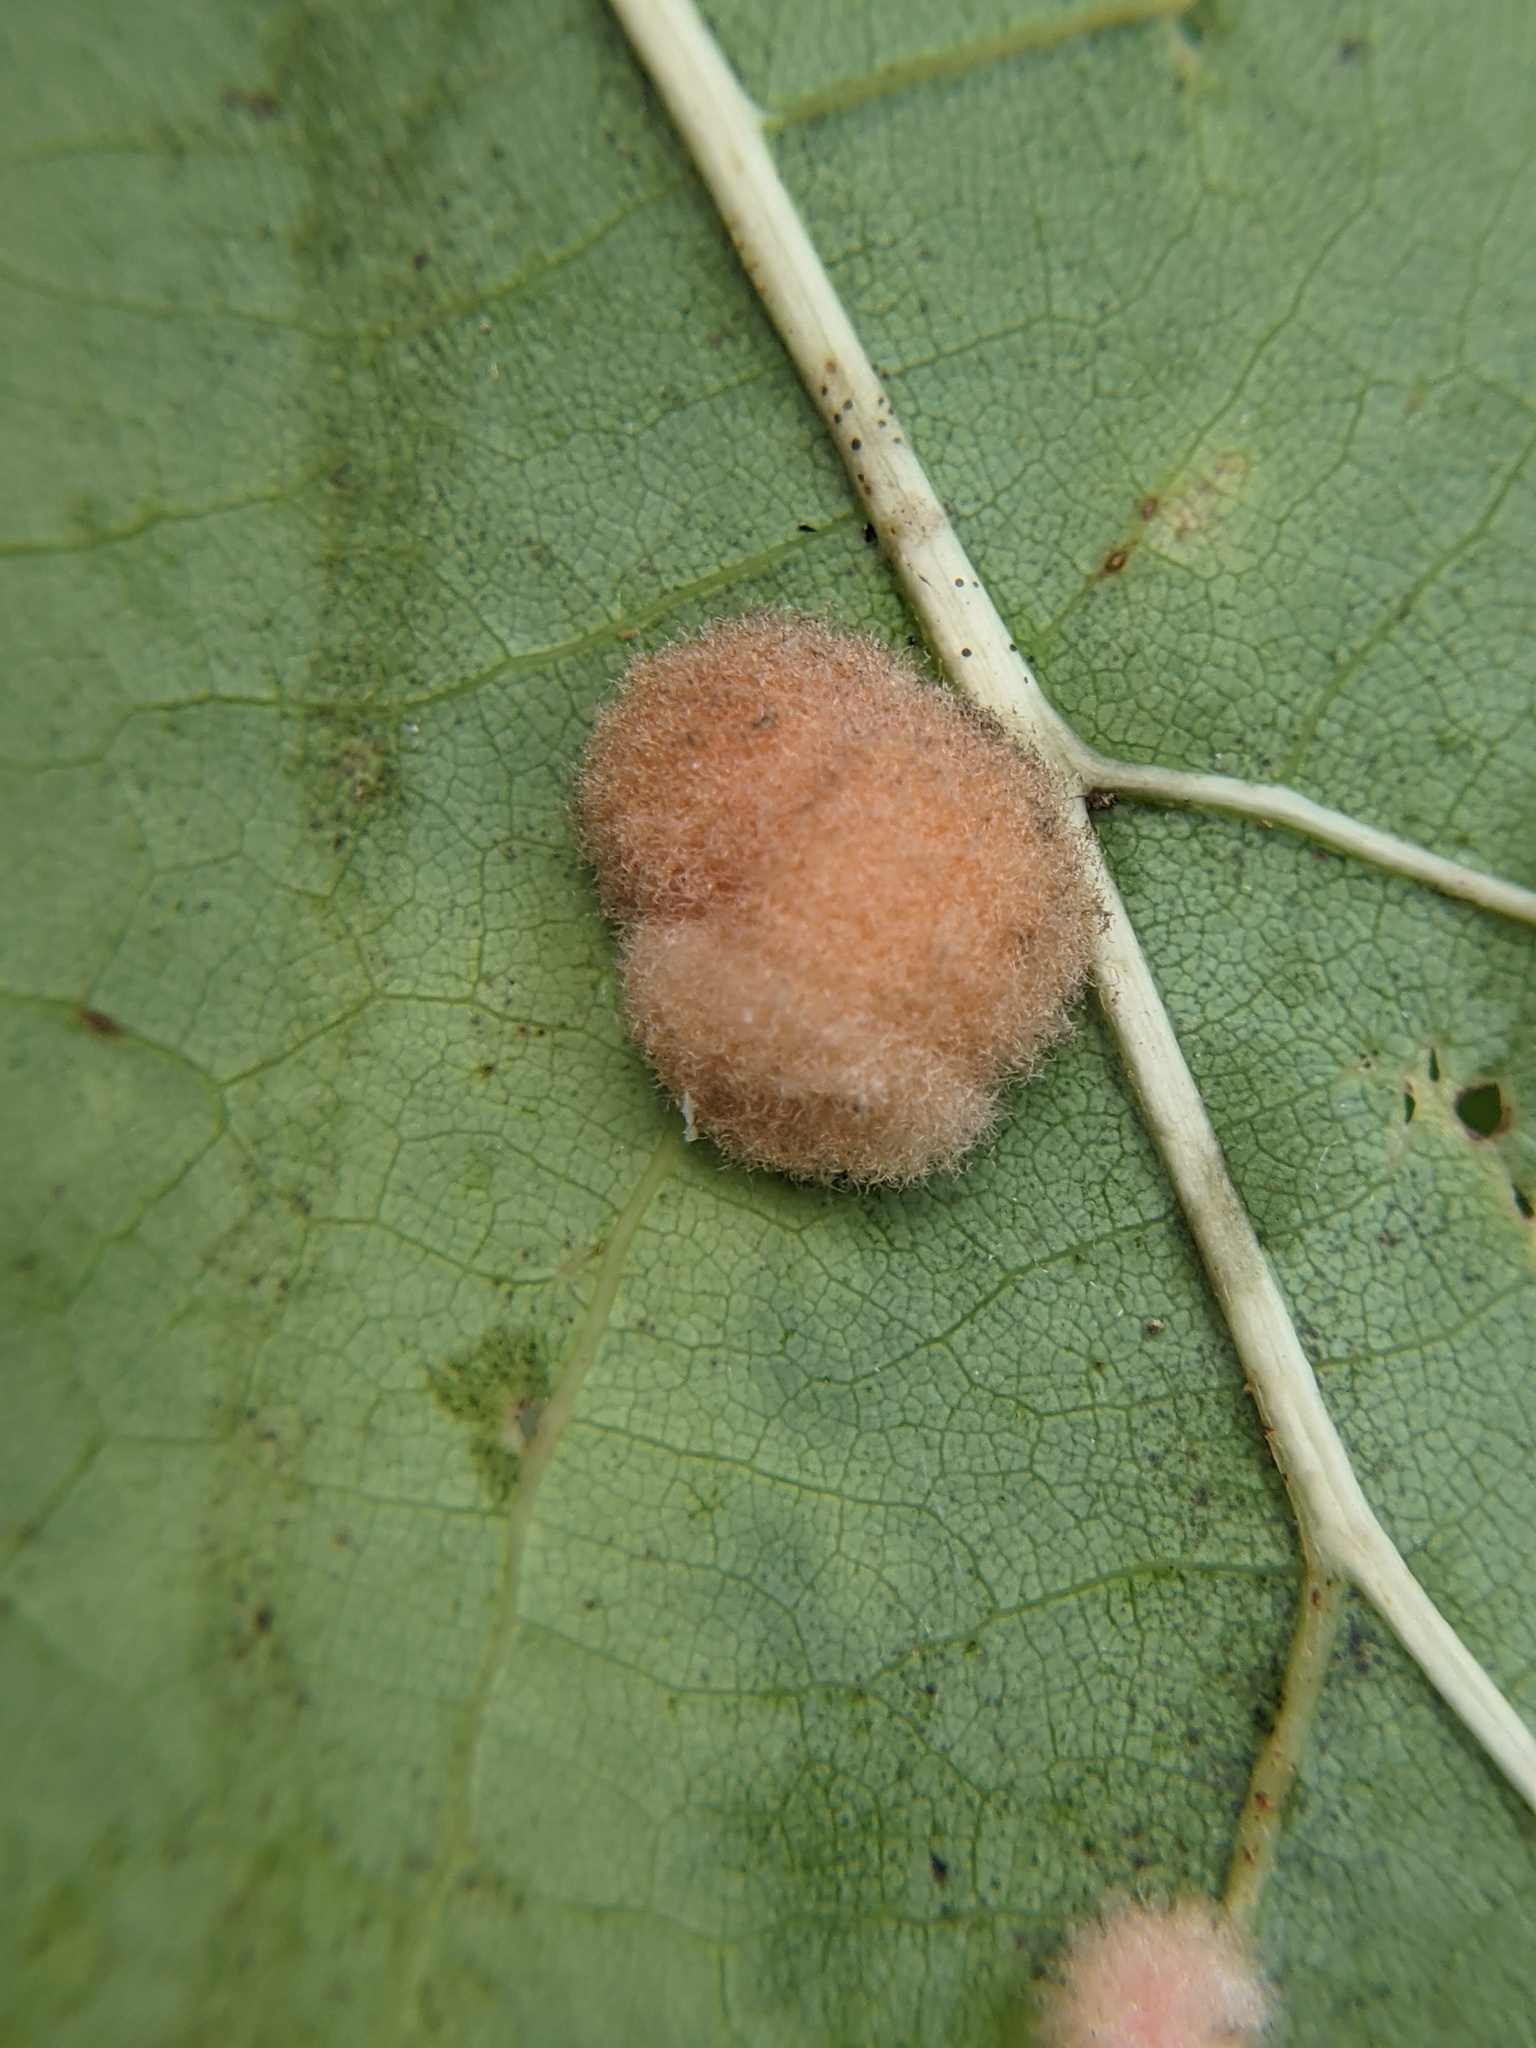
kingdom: Animalia
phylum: Arthropoda
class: Insecta
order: Hymenoptera
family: Cynipidae
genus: Callirhytis
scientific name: Callirhytis
